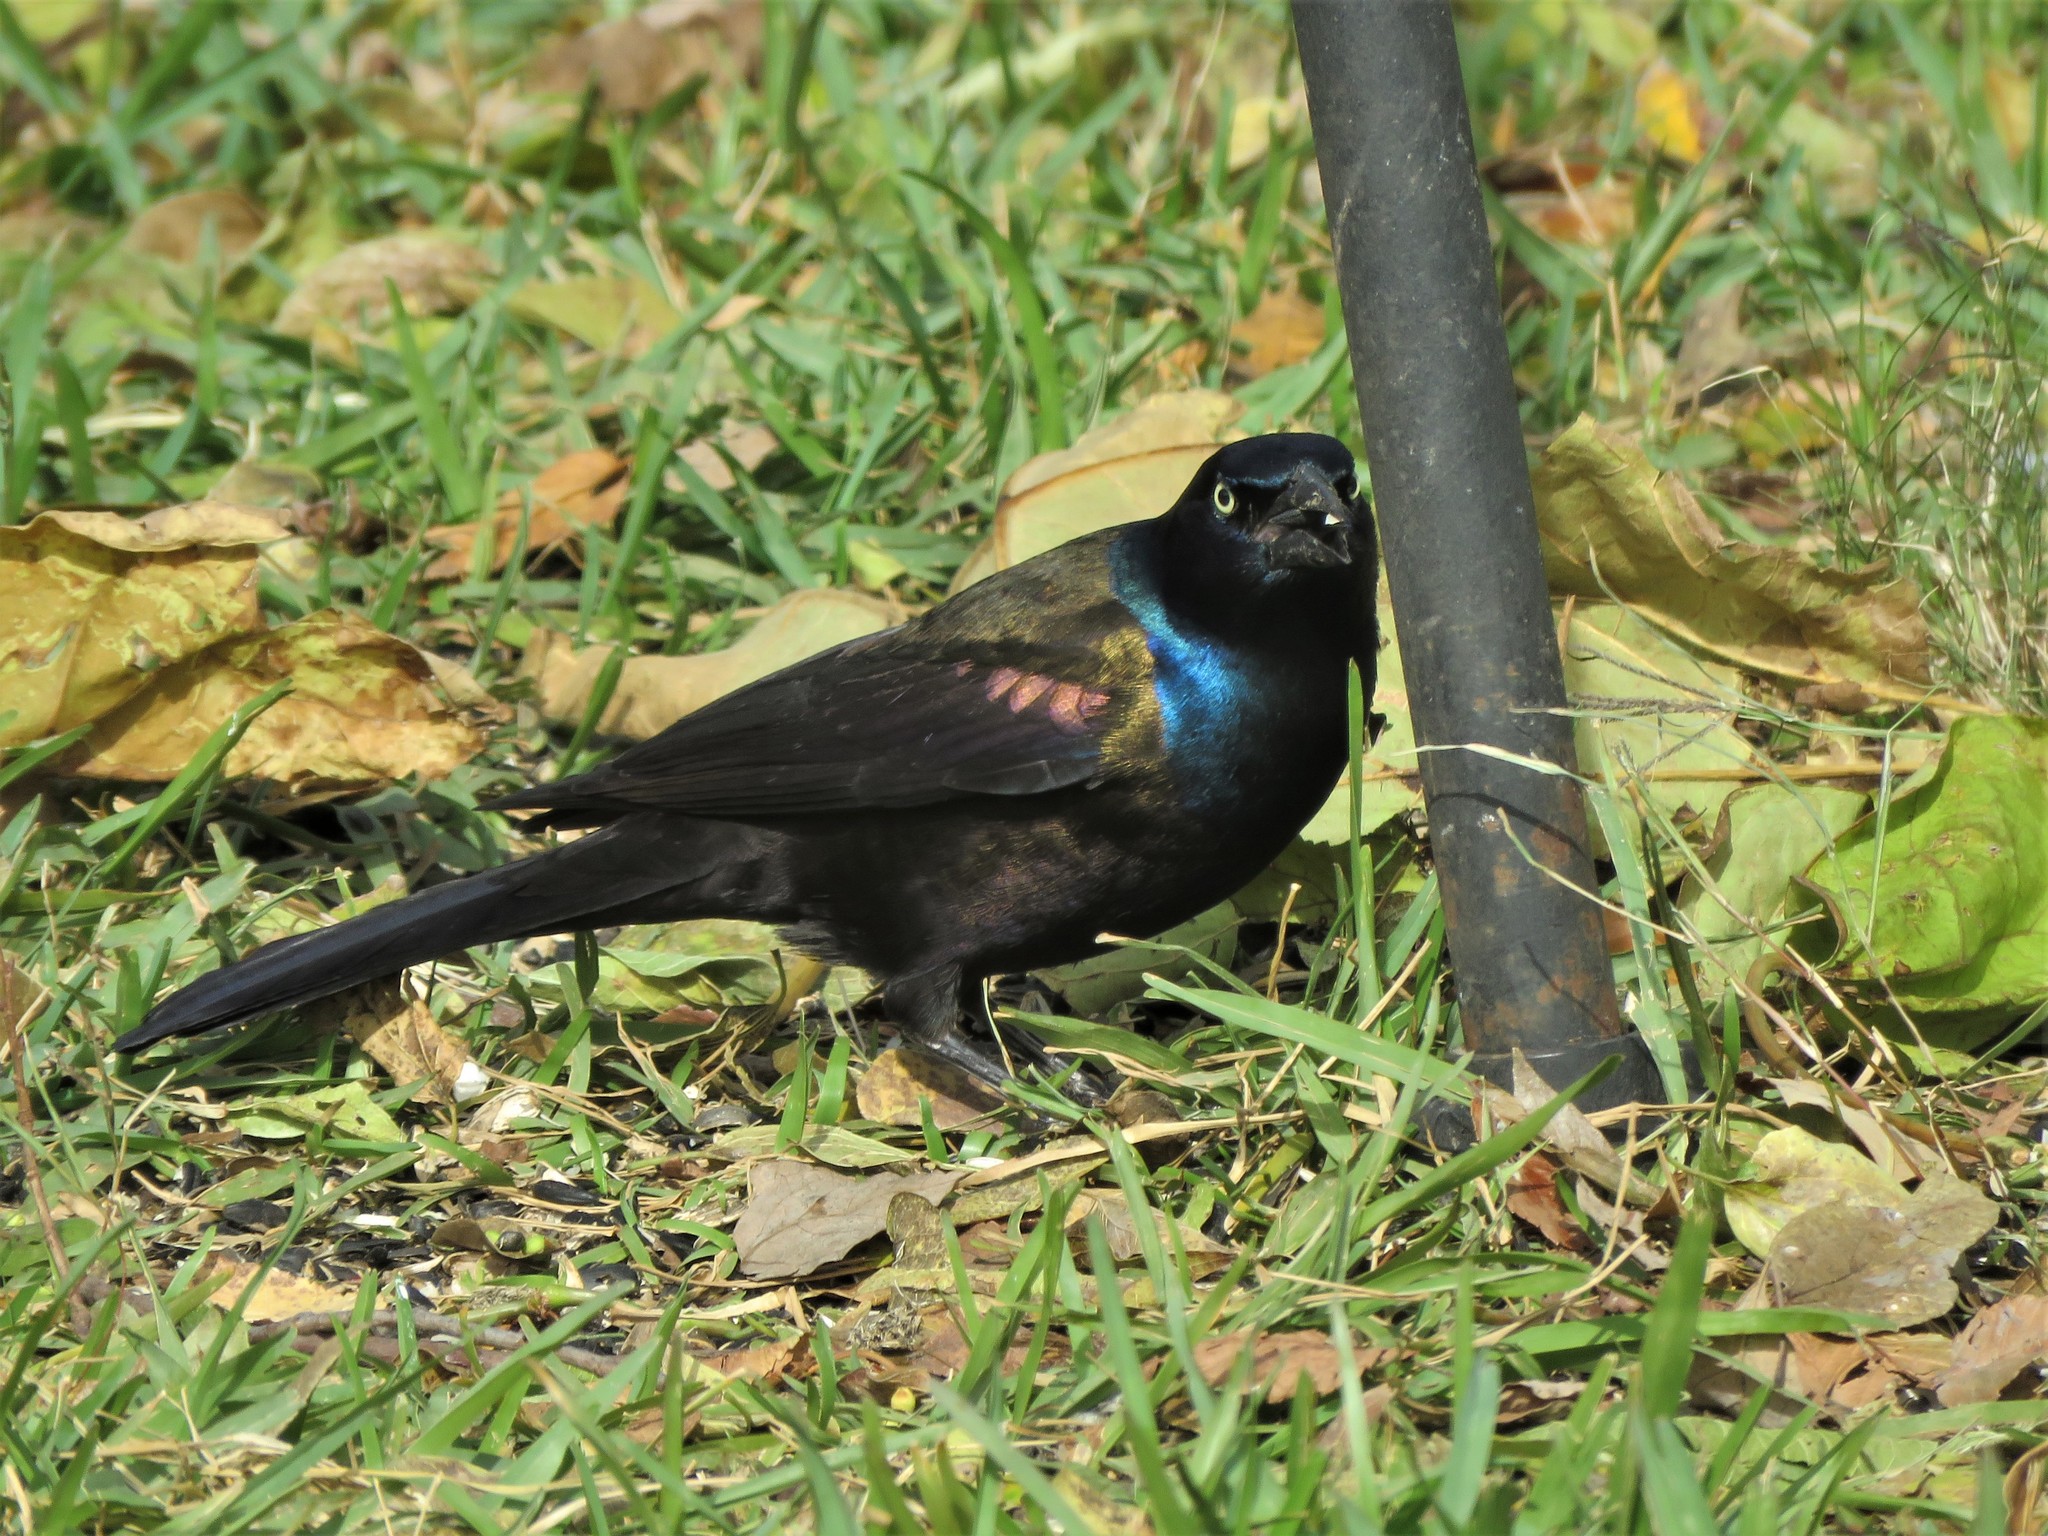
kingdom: Animalia
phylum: Chordata
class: Aves
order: Passeriformes
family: Icteridae
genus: Quiscalus
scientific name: Quiscalus quiscula
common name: Common grackle
